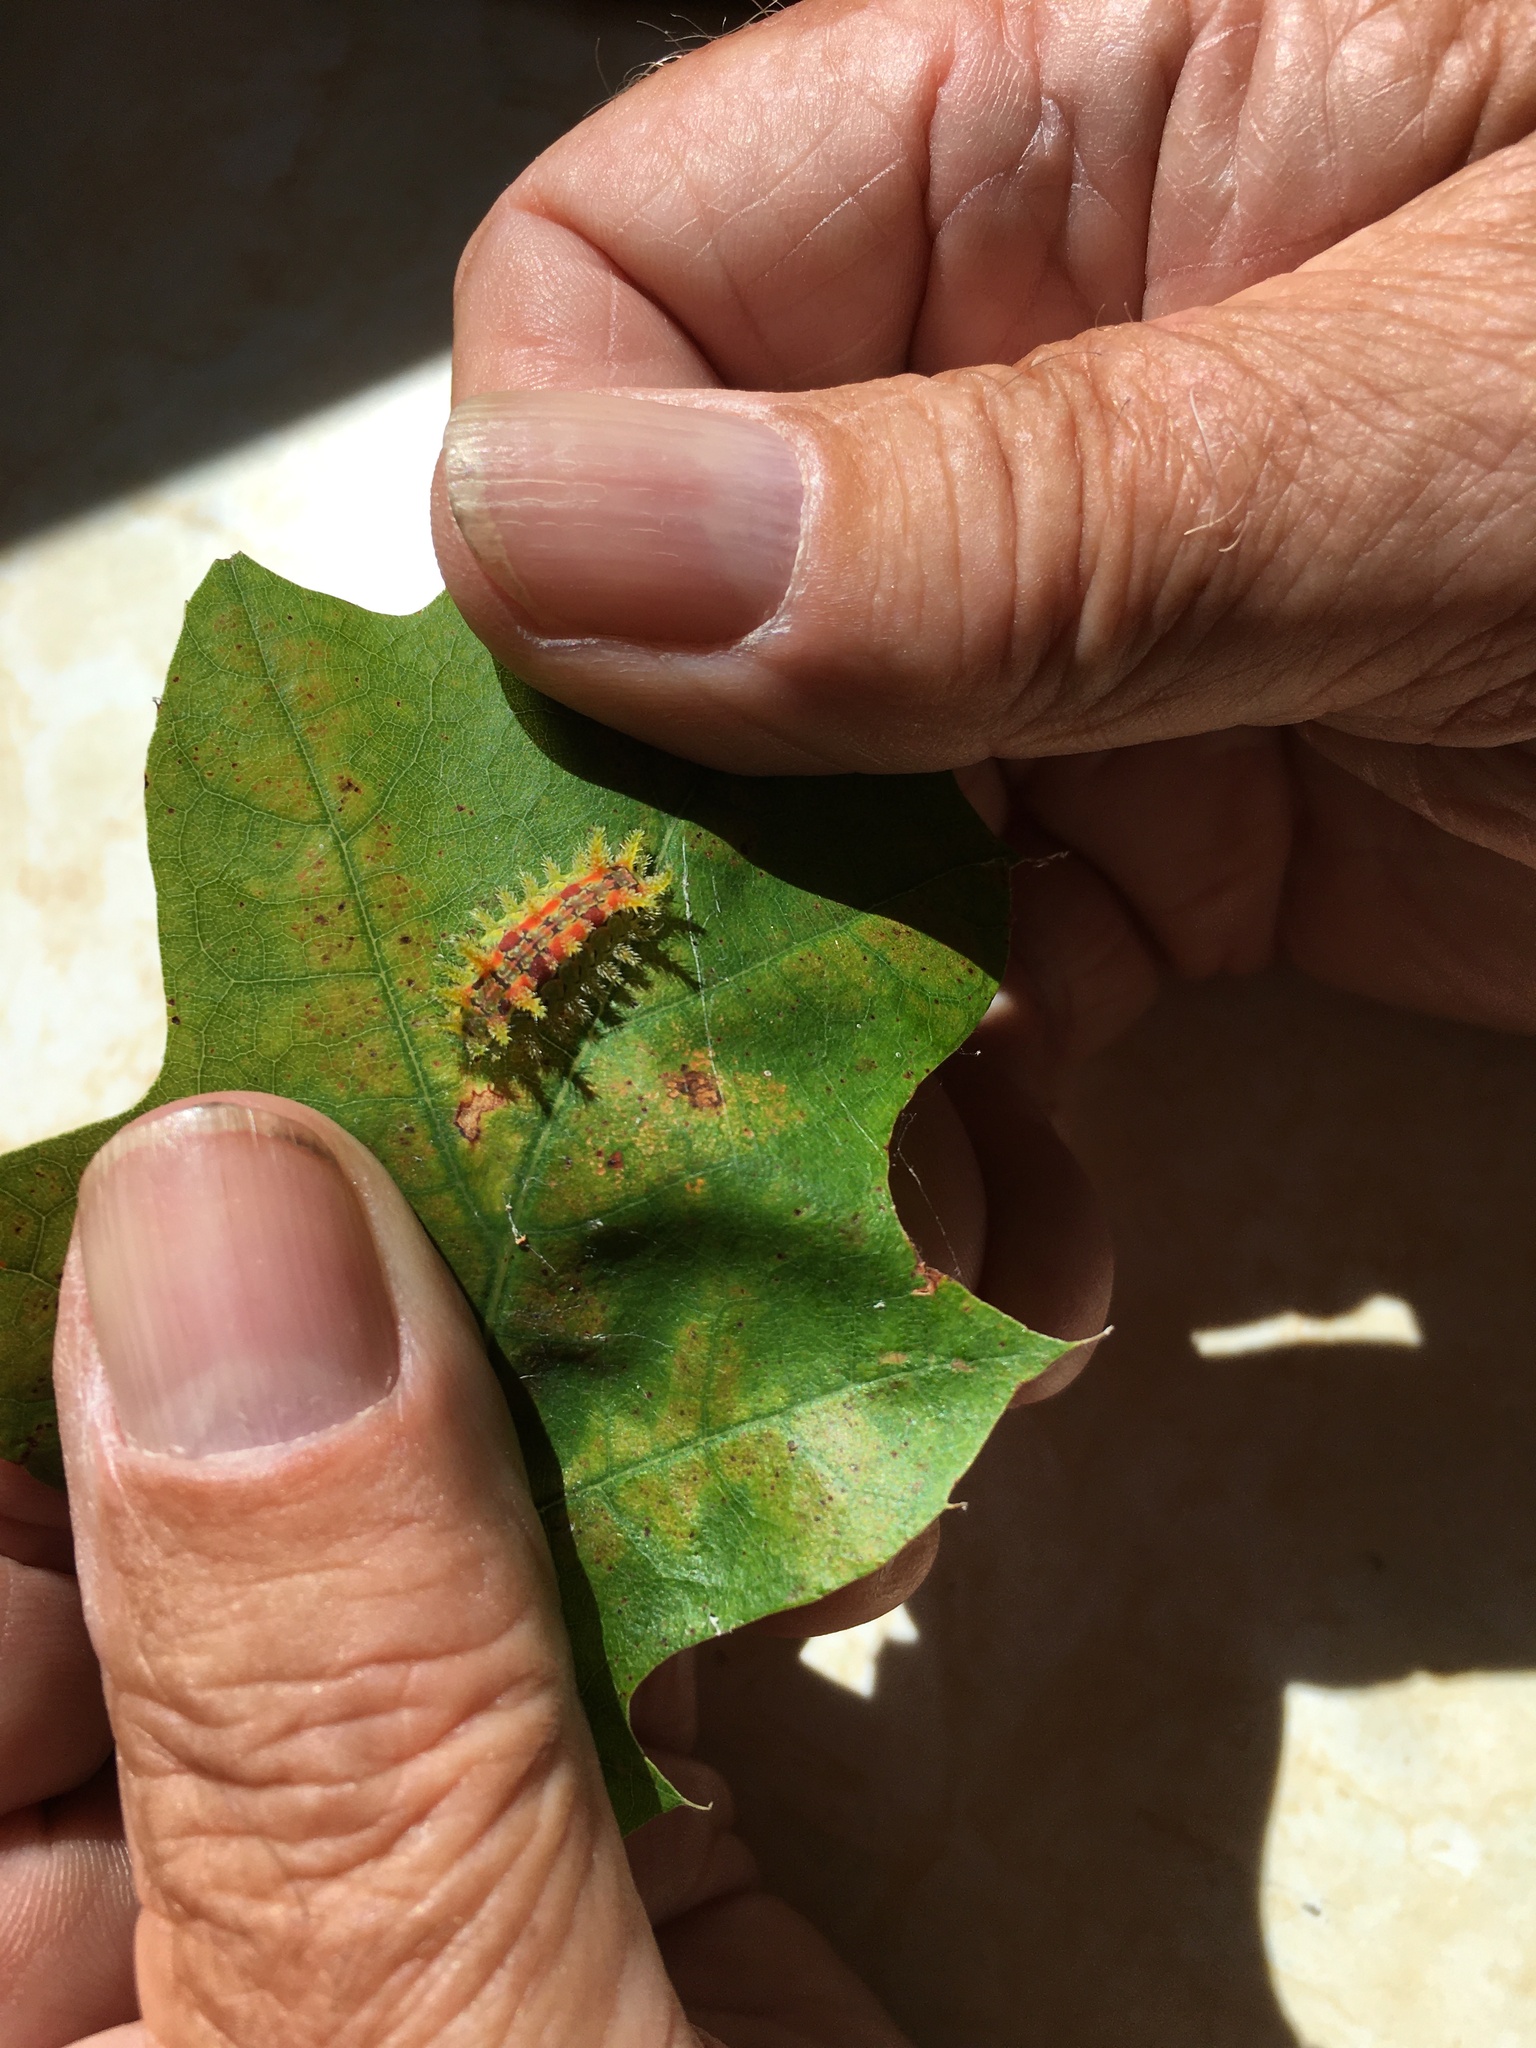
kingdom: Animalia
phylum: Arthropoda
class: Insecta
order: Lepidoptera
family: Limacodidae
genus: Euclea
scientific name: Euclea delphinii
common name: Spiny oak-slug moth
